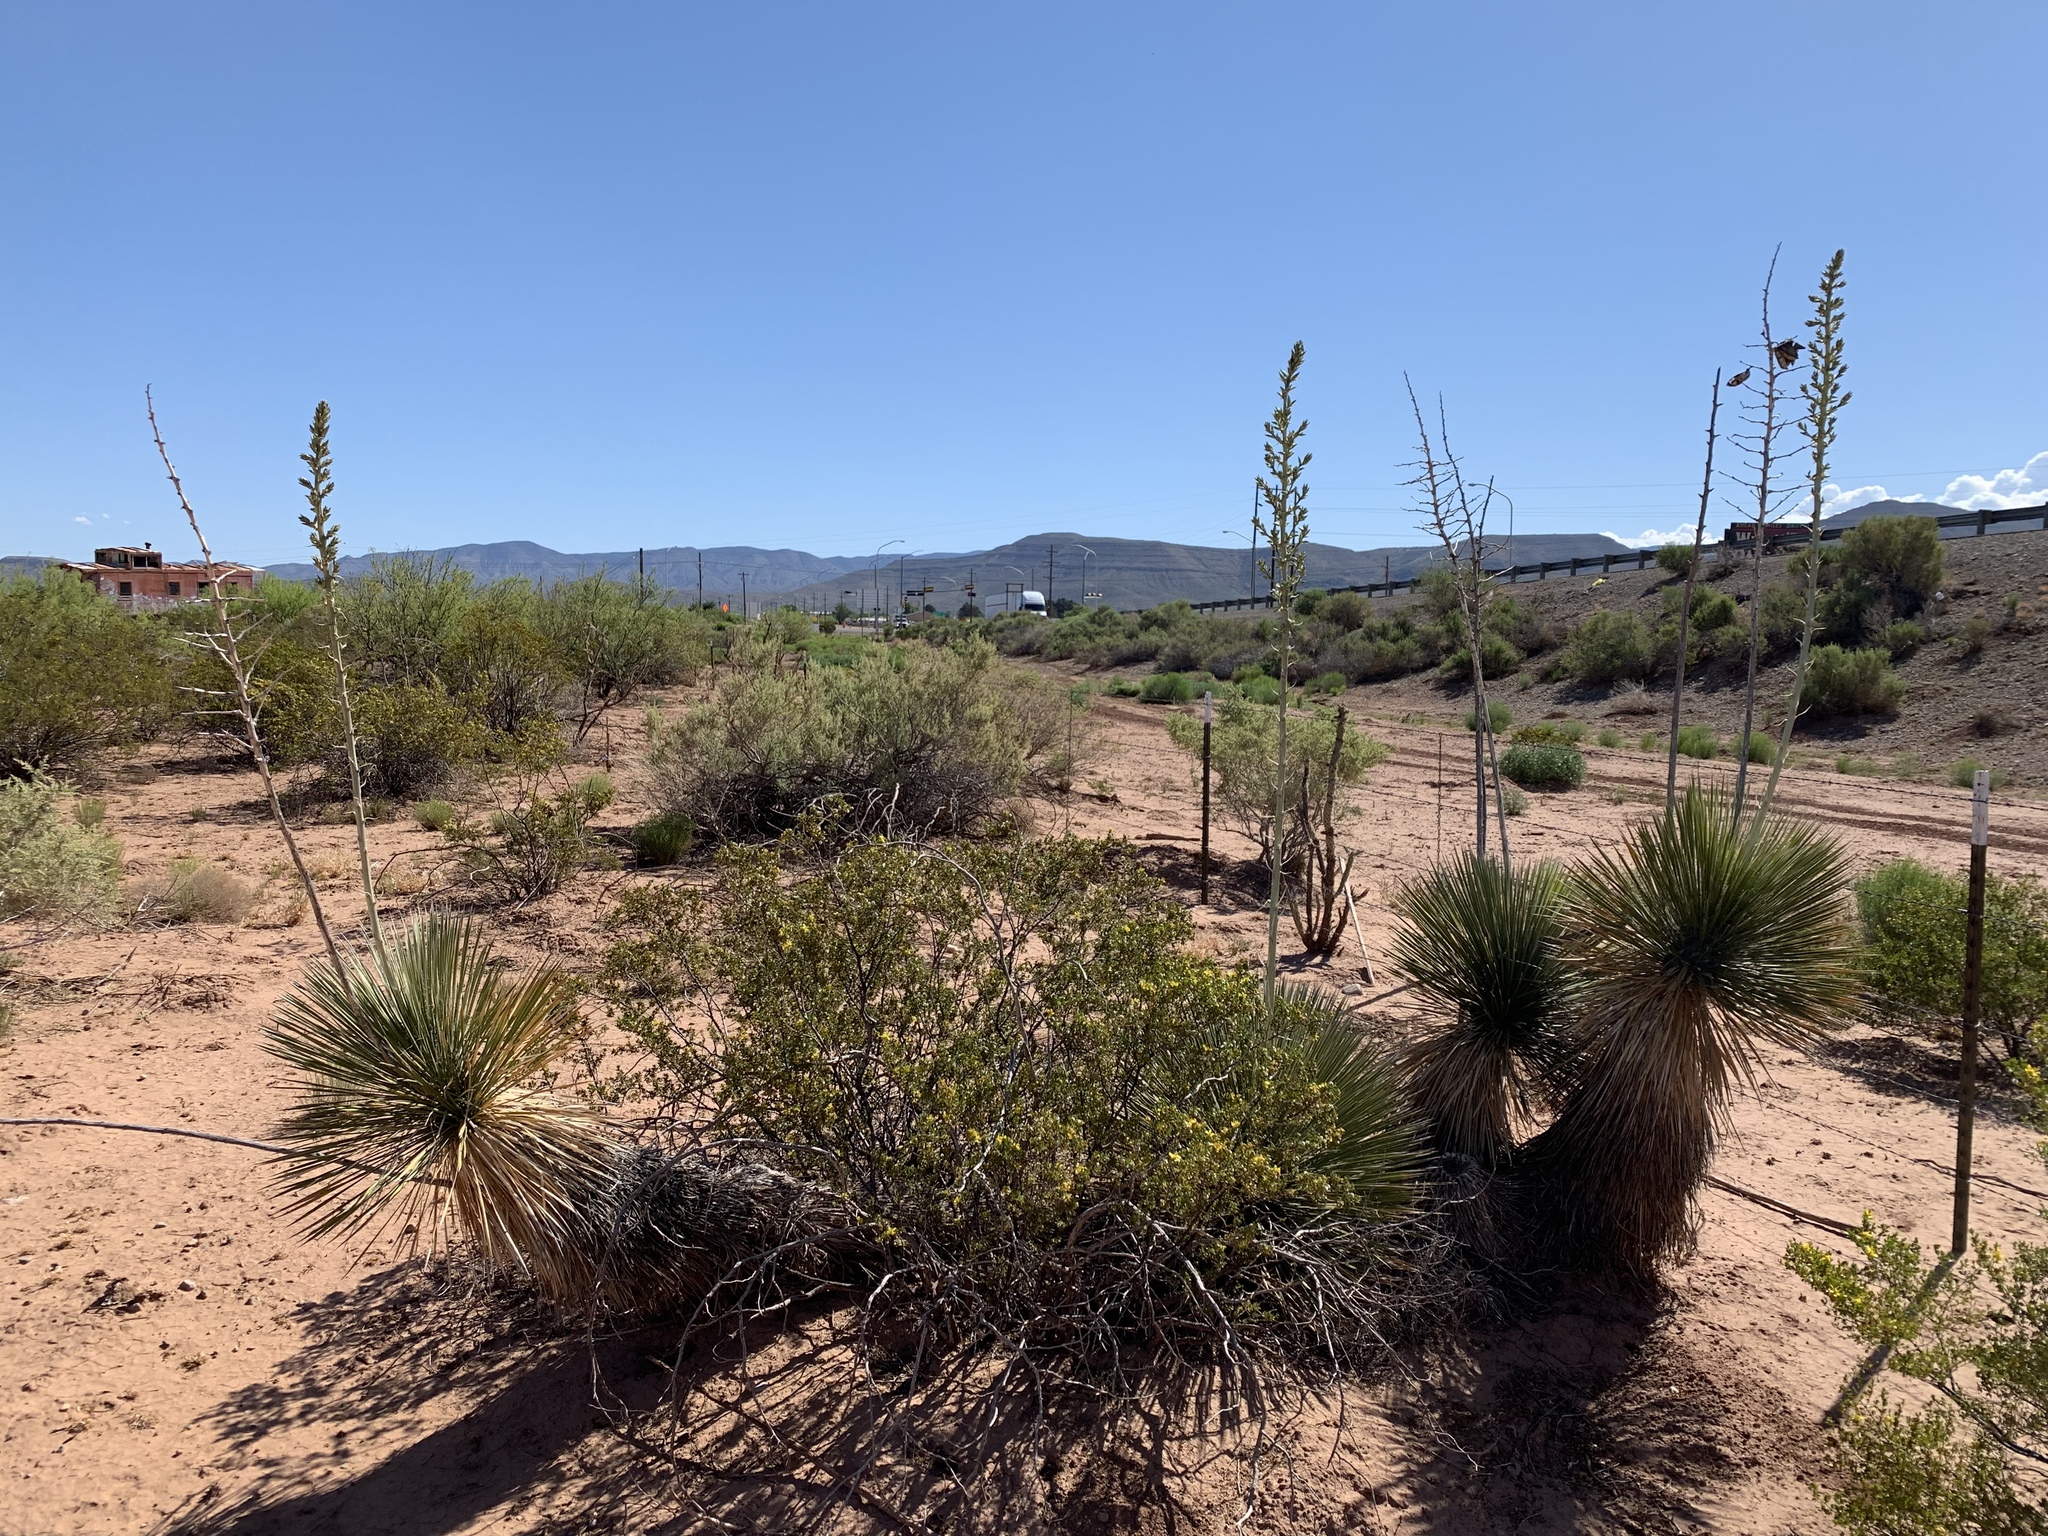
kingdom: Plantae
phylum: Tracheophyta
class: Liliopsida
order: Asparagales
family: Asparagaceae
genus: Yucca
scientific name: Yucca elata
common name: Palmella
